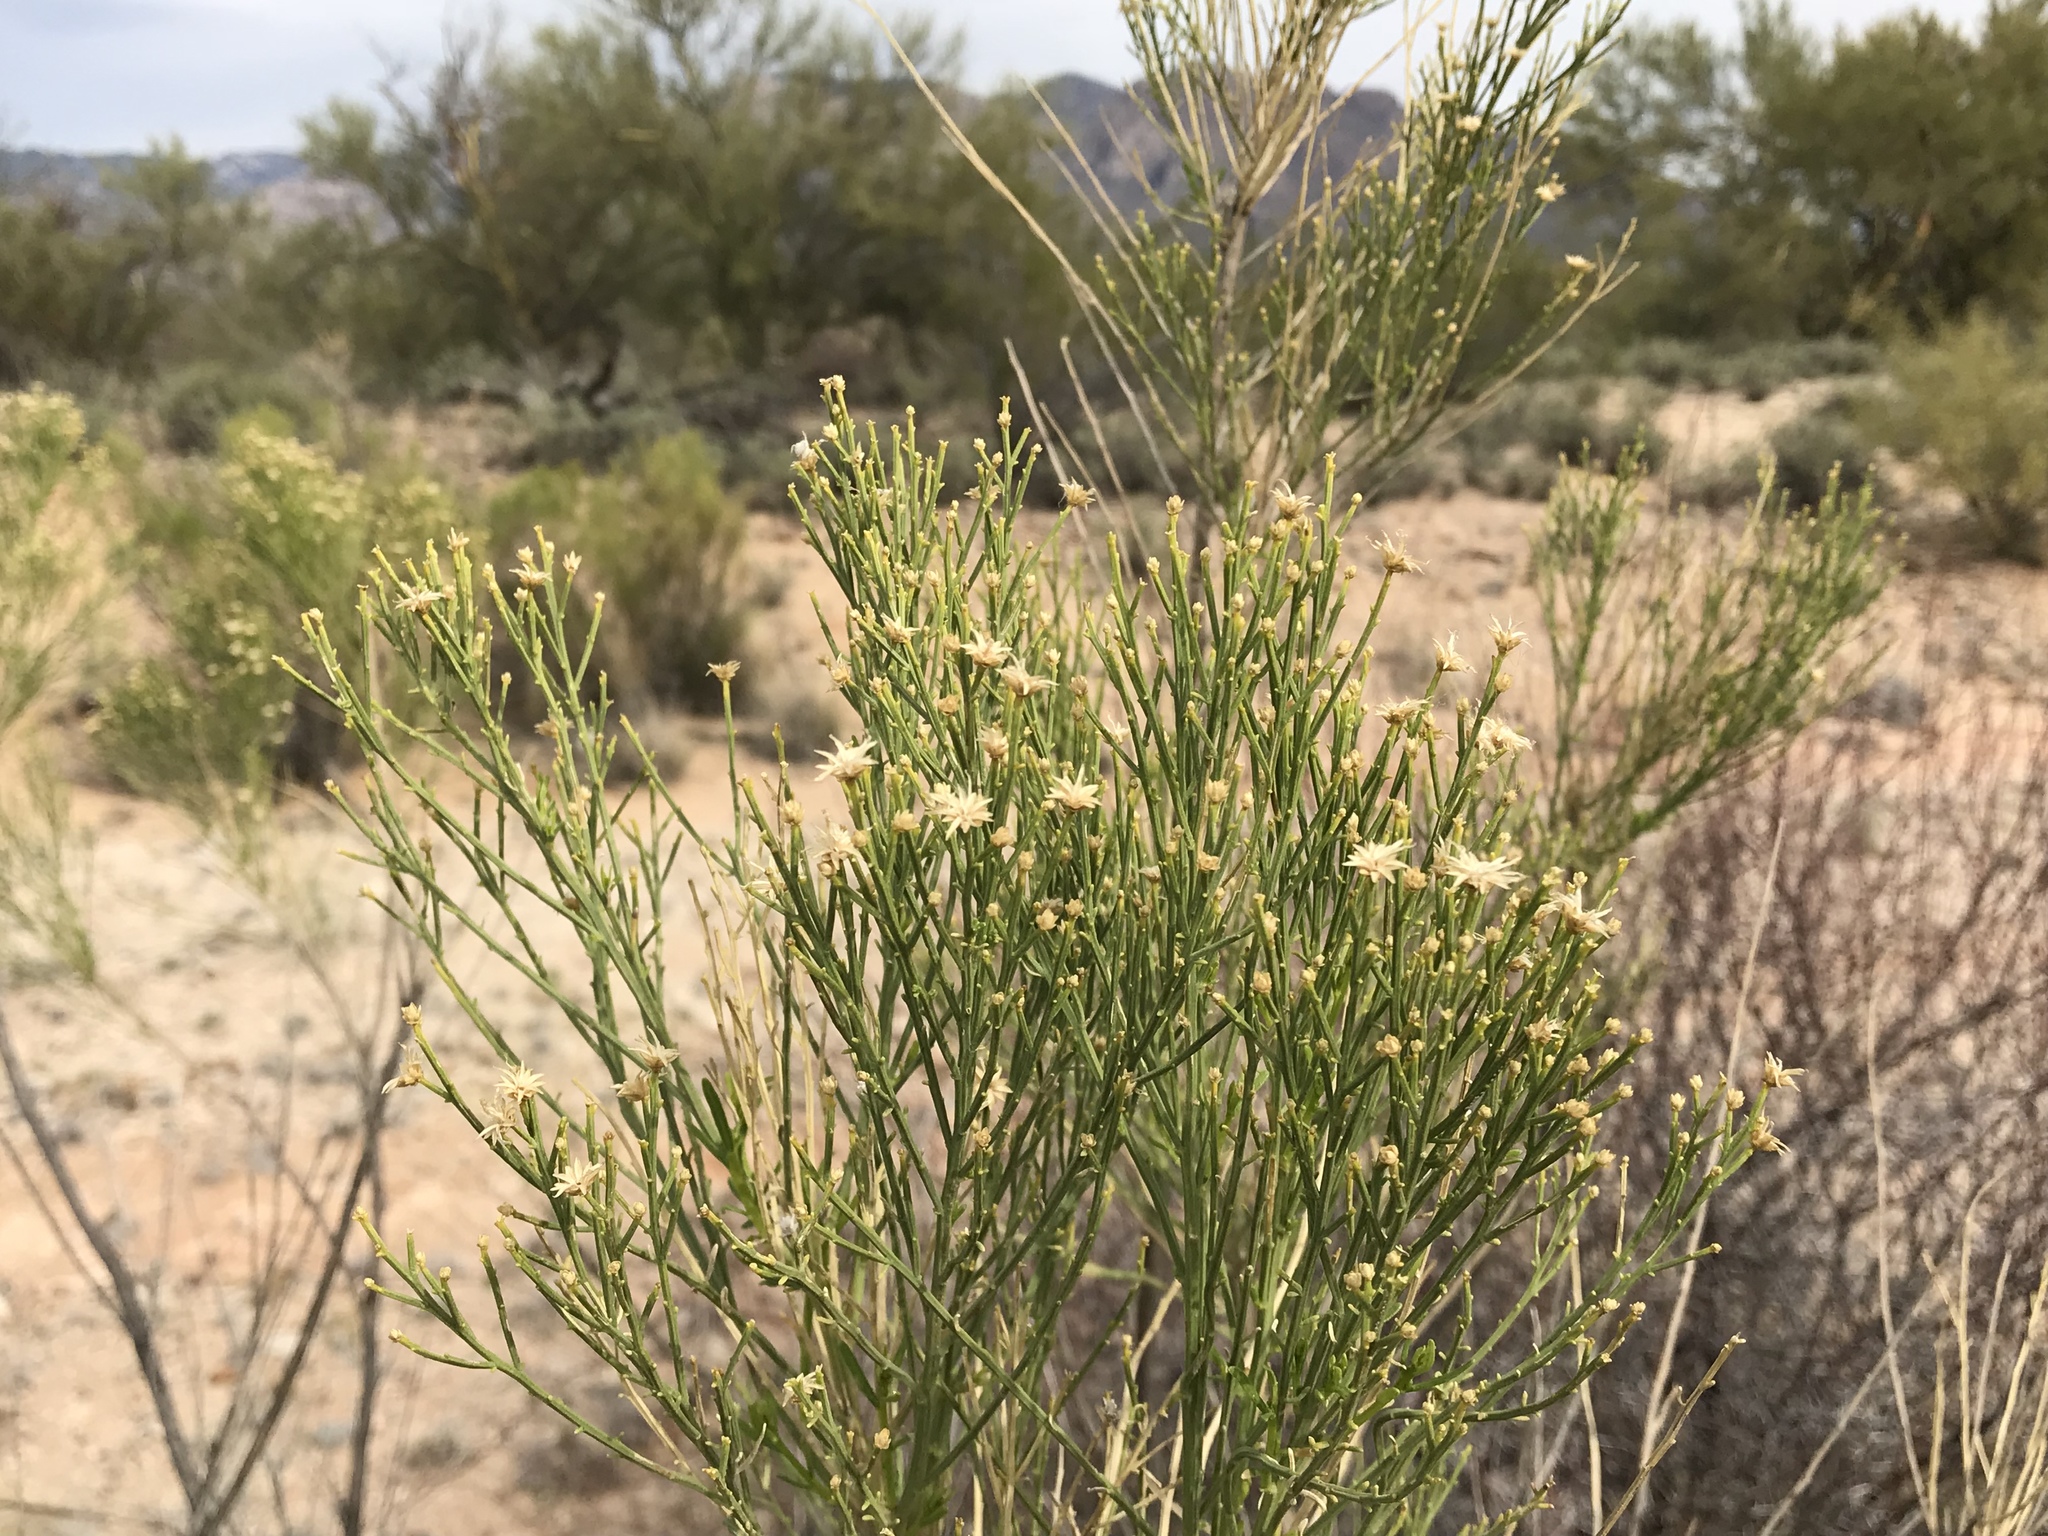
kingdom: Plantae
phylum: Tracheophyta
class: Magnoliopsida
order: Asterales
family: Asteraceae
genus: Baccharis
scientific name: Baccharis sarothroides
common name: Desert-broom
